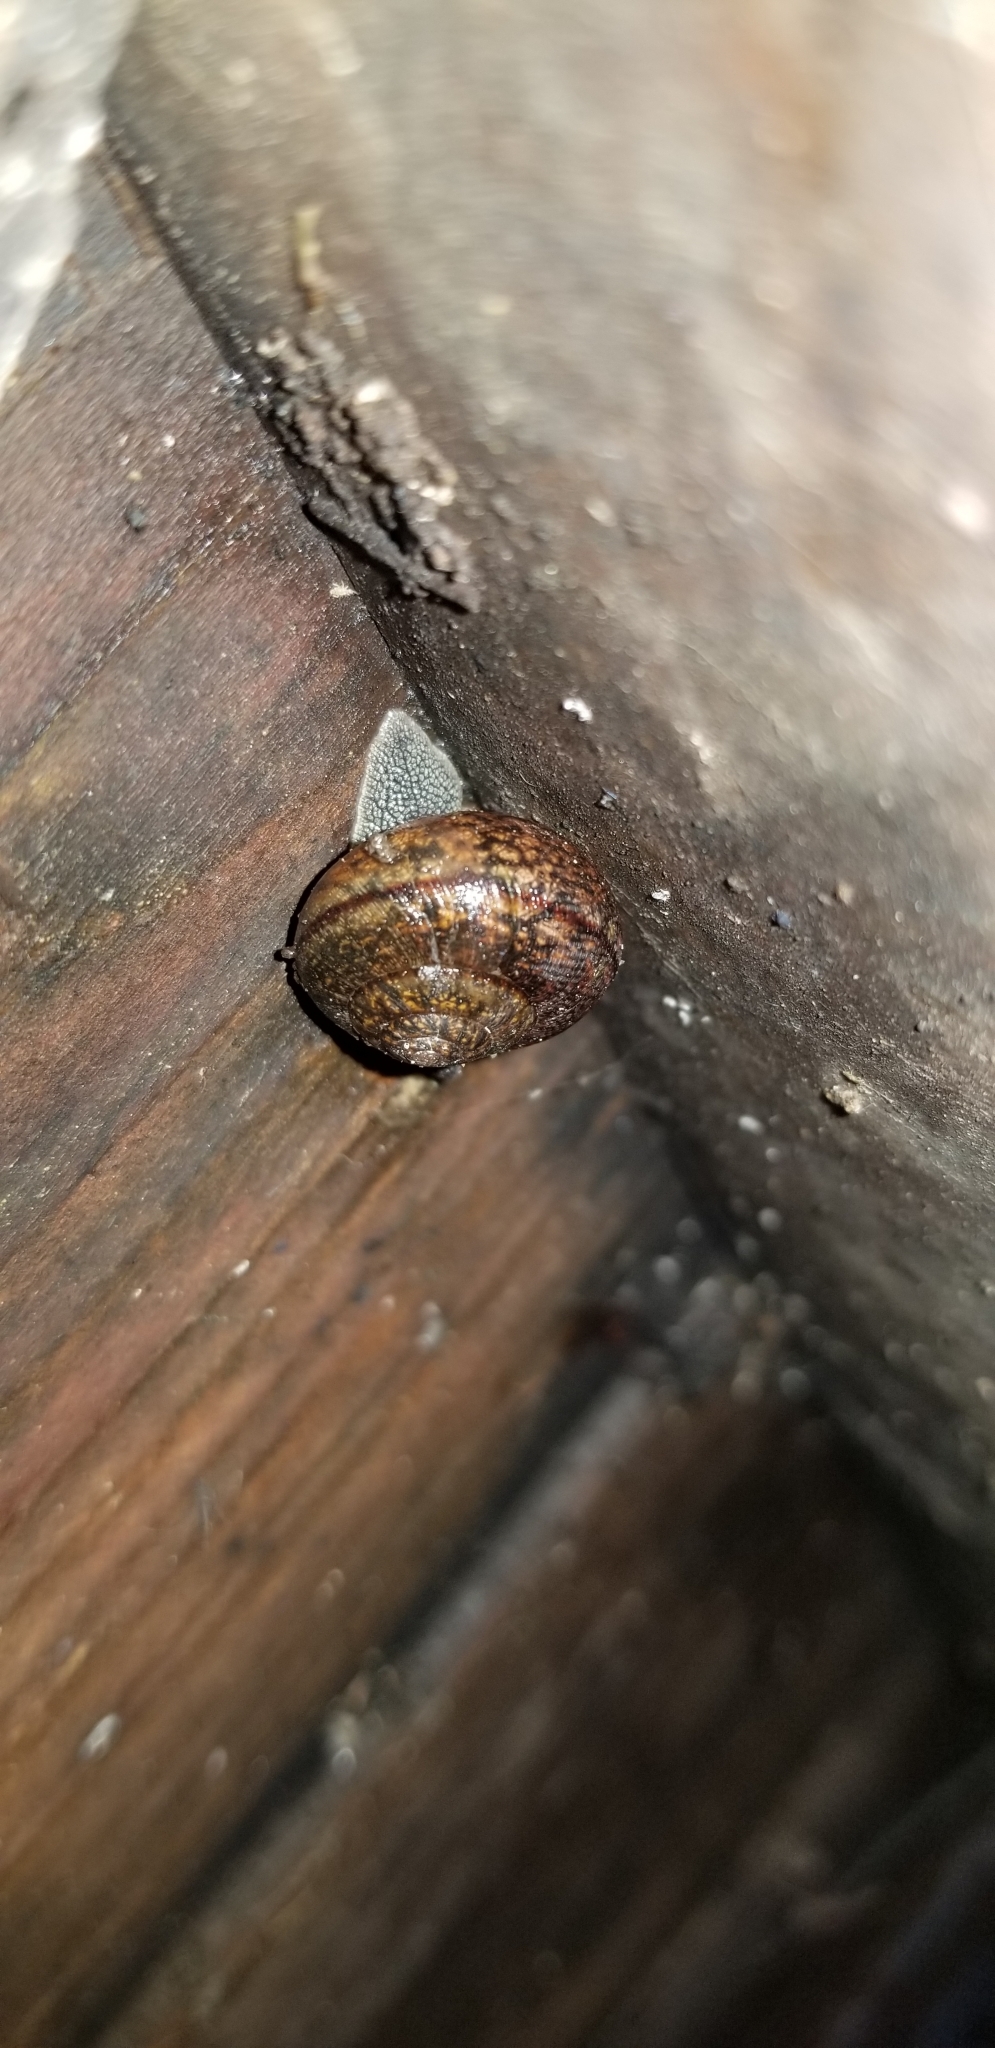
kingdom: Animalia
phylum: Mollusca
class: Gastropoda
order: Stylommatophora
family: Xanthonychidae
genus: Helminthoglypta
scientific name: Helminthoglypta nickliniana
